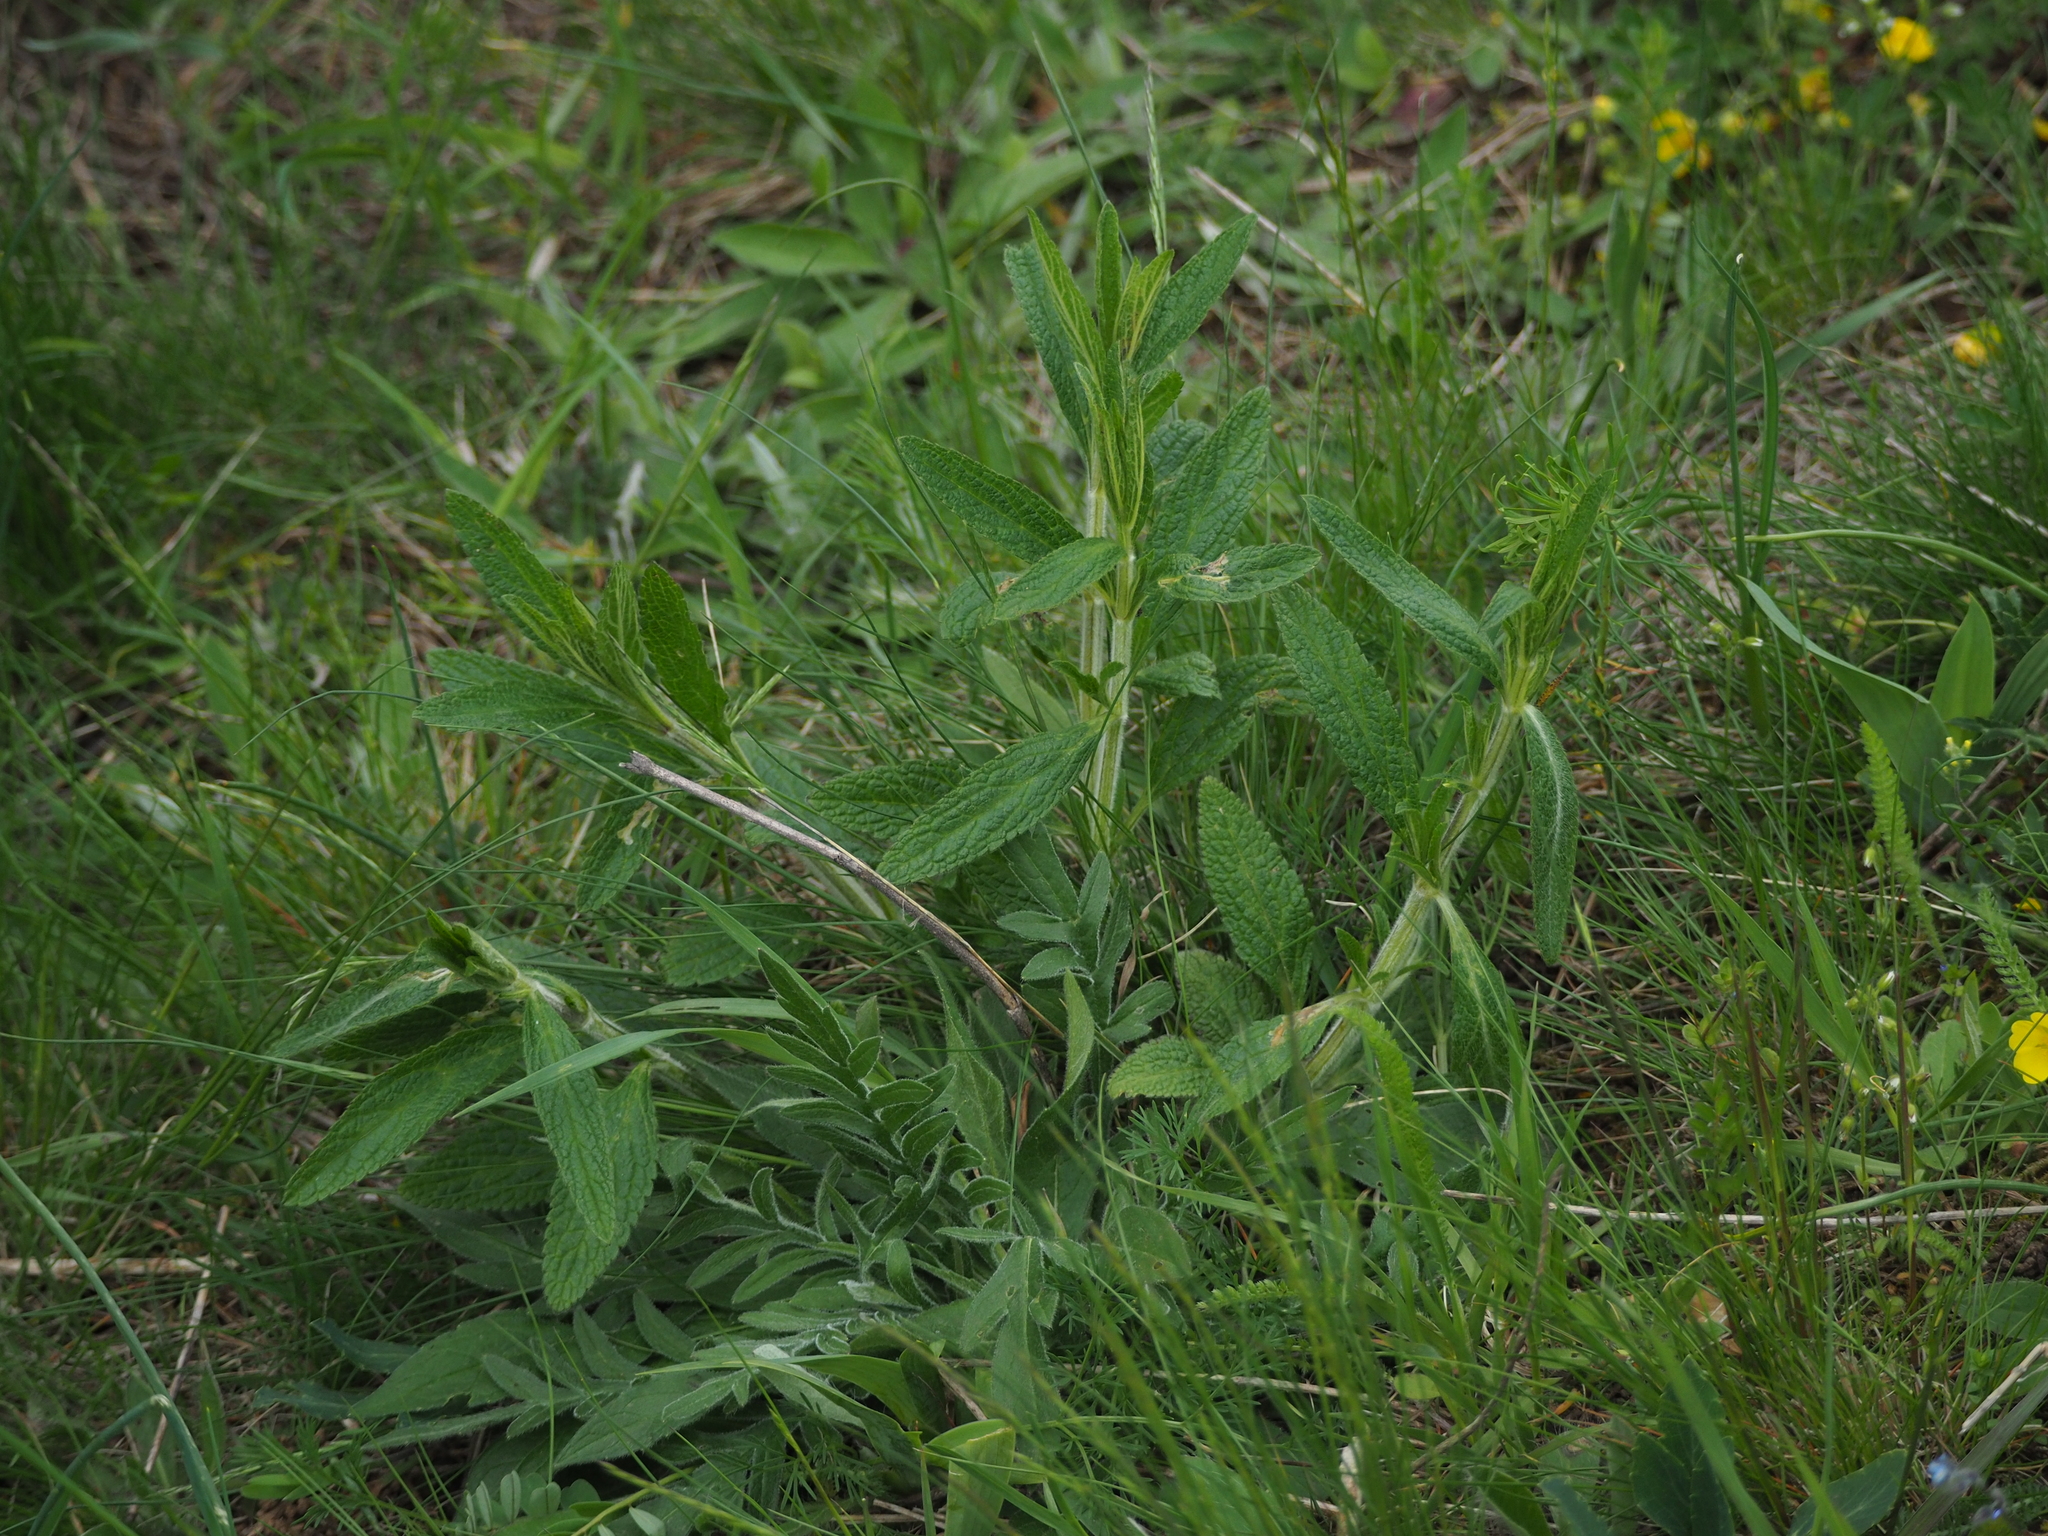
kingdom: Plantae
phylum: Tracheophyta
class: Magnoliopsida
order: Lamiales
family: Lamiaceae
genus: Stachys
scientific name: Stachys recta
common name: Perennial yellow-woundwort
